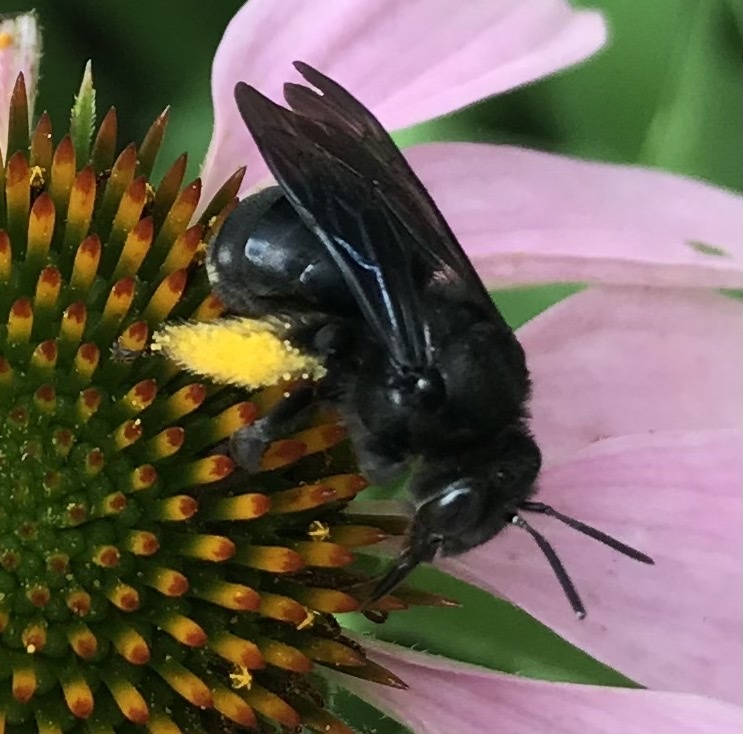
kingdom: Animalia
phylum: Arthropoda
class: Insecta
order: Hymenoptera
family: Apidae
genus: Melissodes
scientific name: Melissodes bimaculatus
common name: Two-spotted long-horned bee
